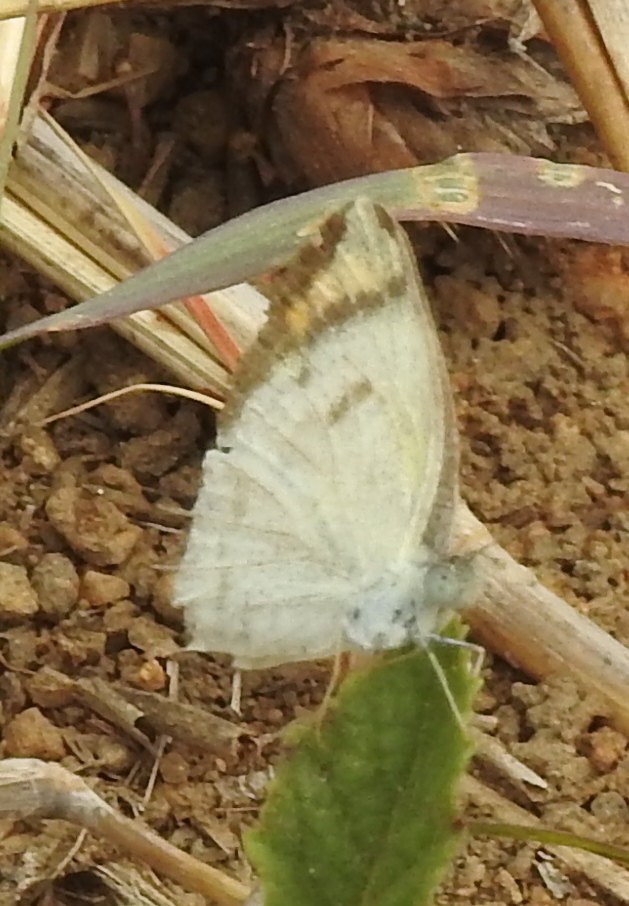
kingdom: Animalia
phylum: Arthropoda
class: Insecta
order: Lepidoptera
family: Pieridae
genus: Colotis
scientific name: Colotis etrida
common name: Little orange tip
